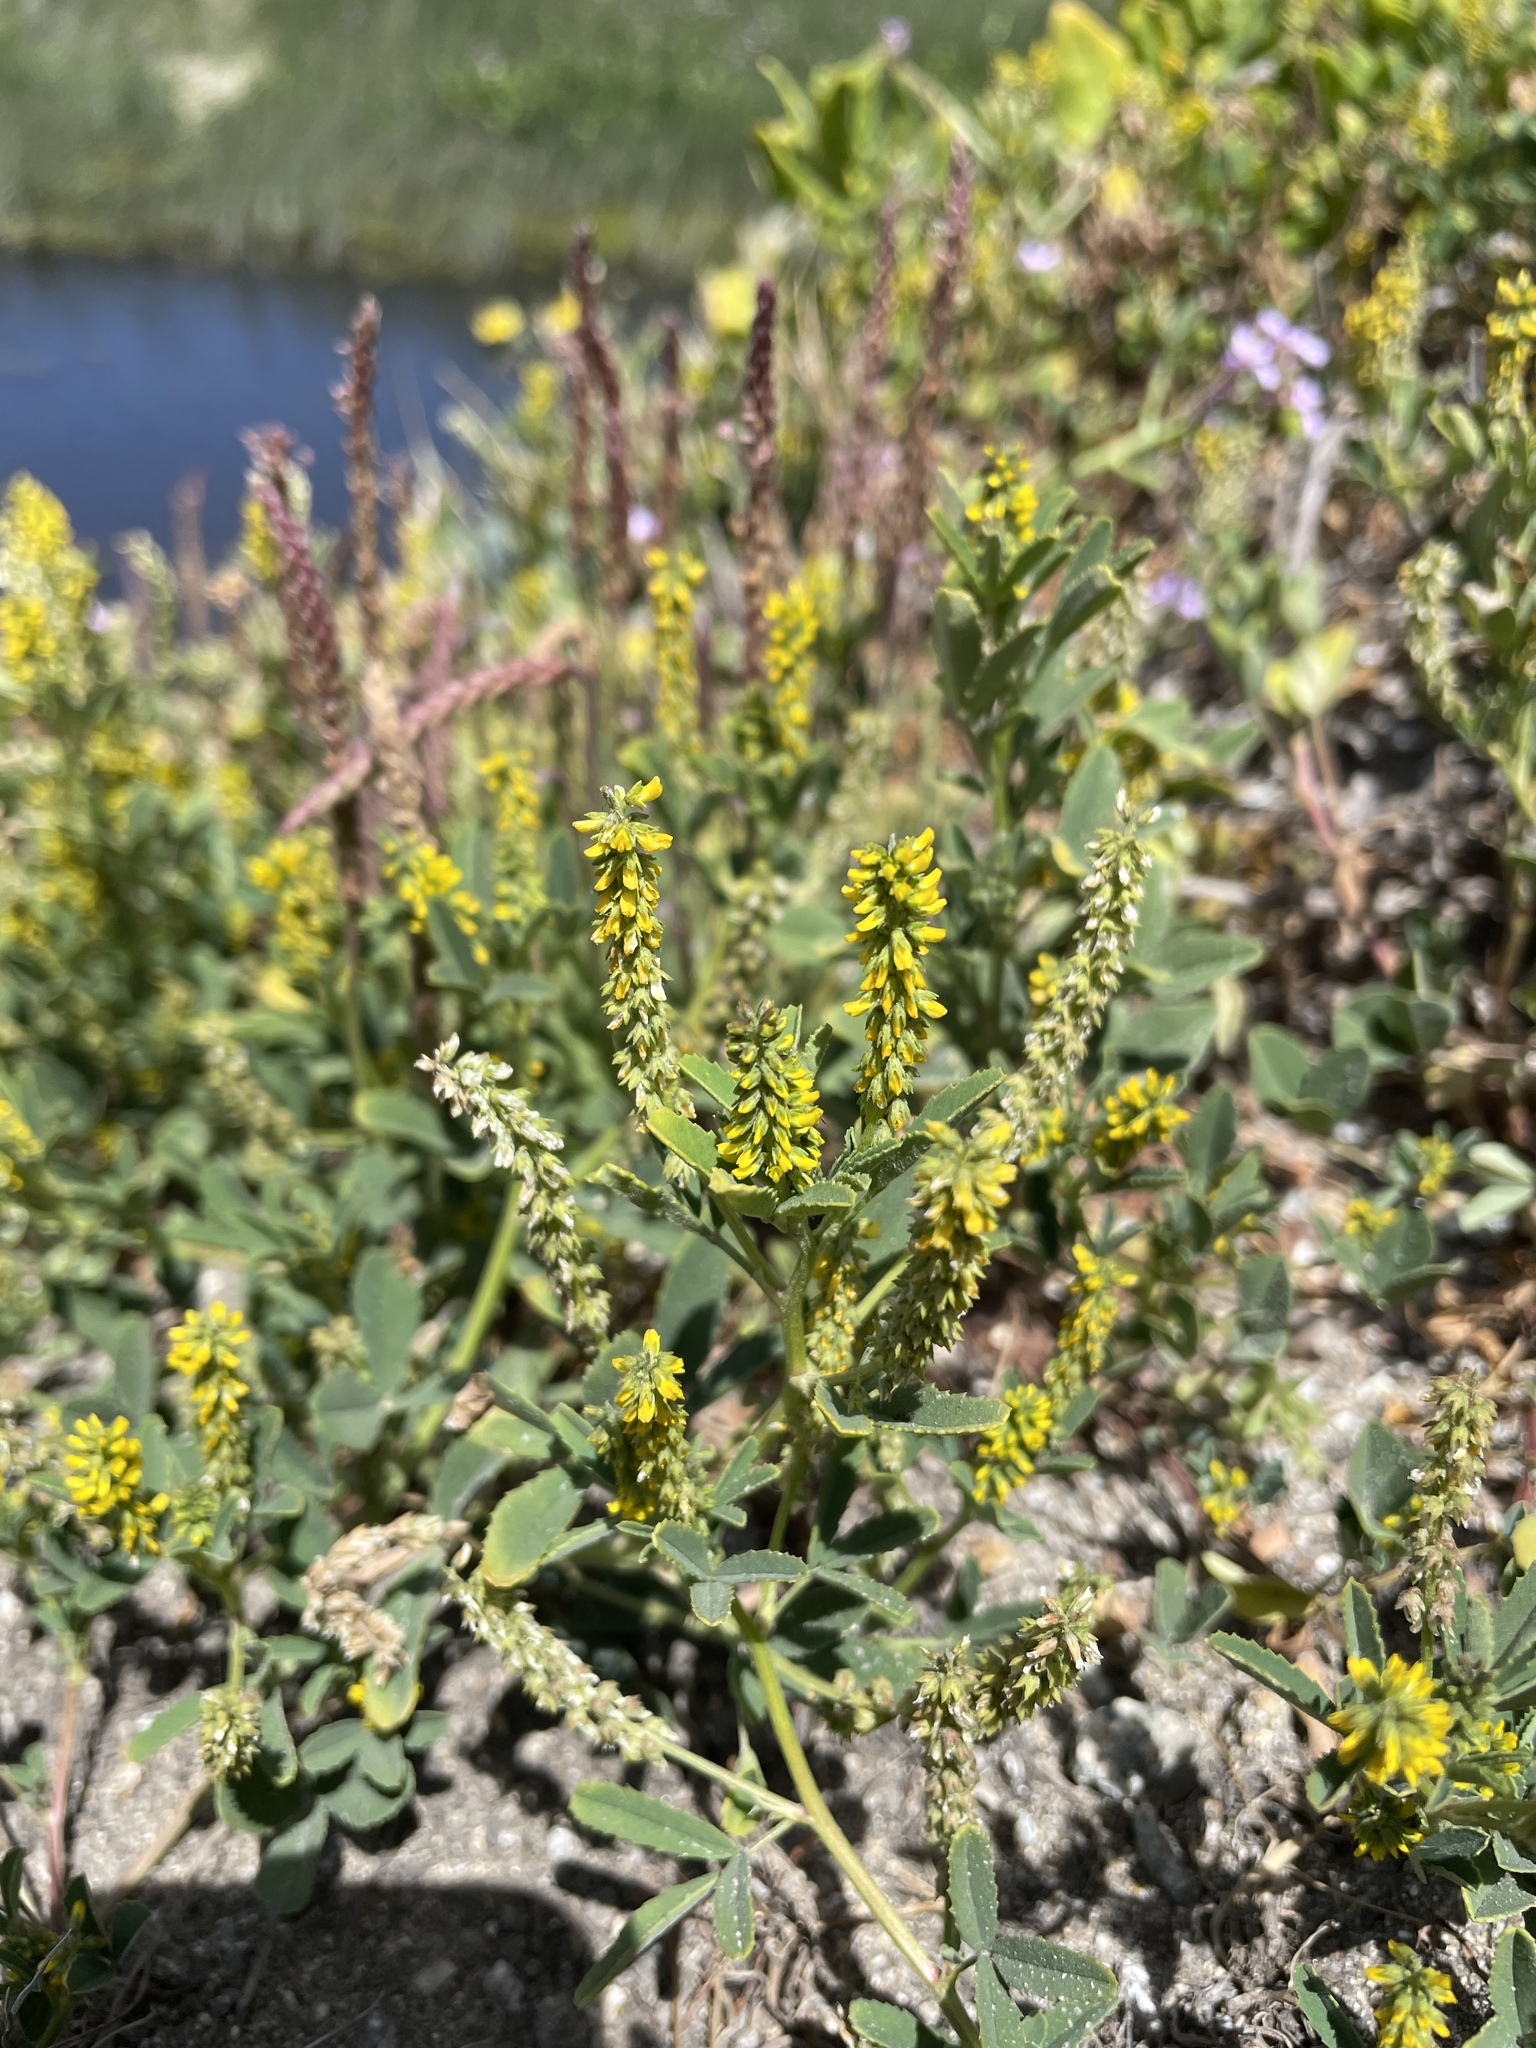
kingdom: Plantae
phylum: Tracheophyta
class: Magnoliopsida
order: Fabales
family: Fabaceae
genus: Melilotus
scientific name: Melilotus indicus
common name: Small melilot
